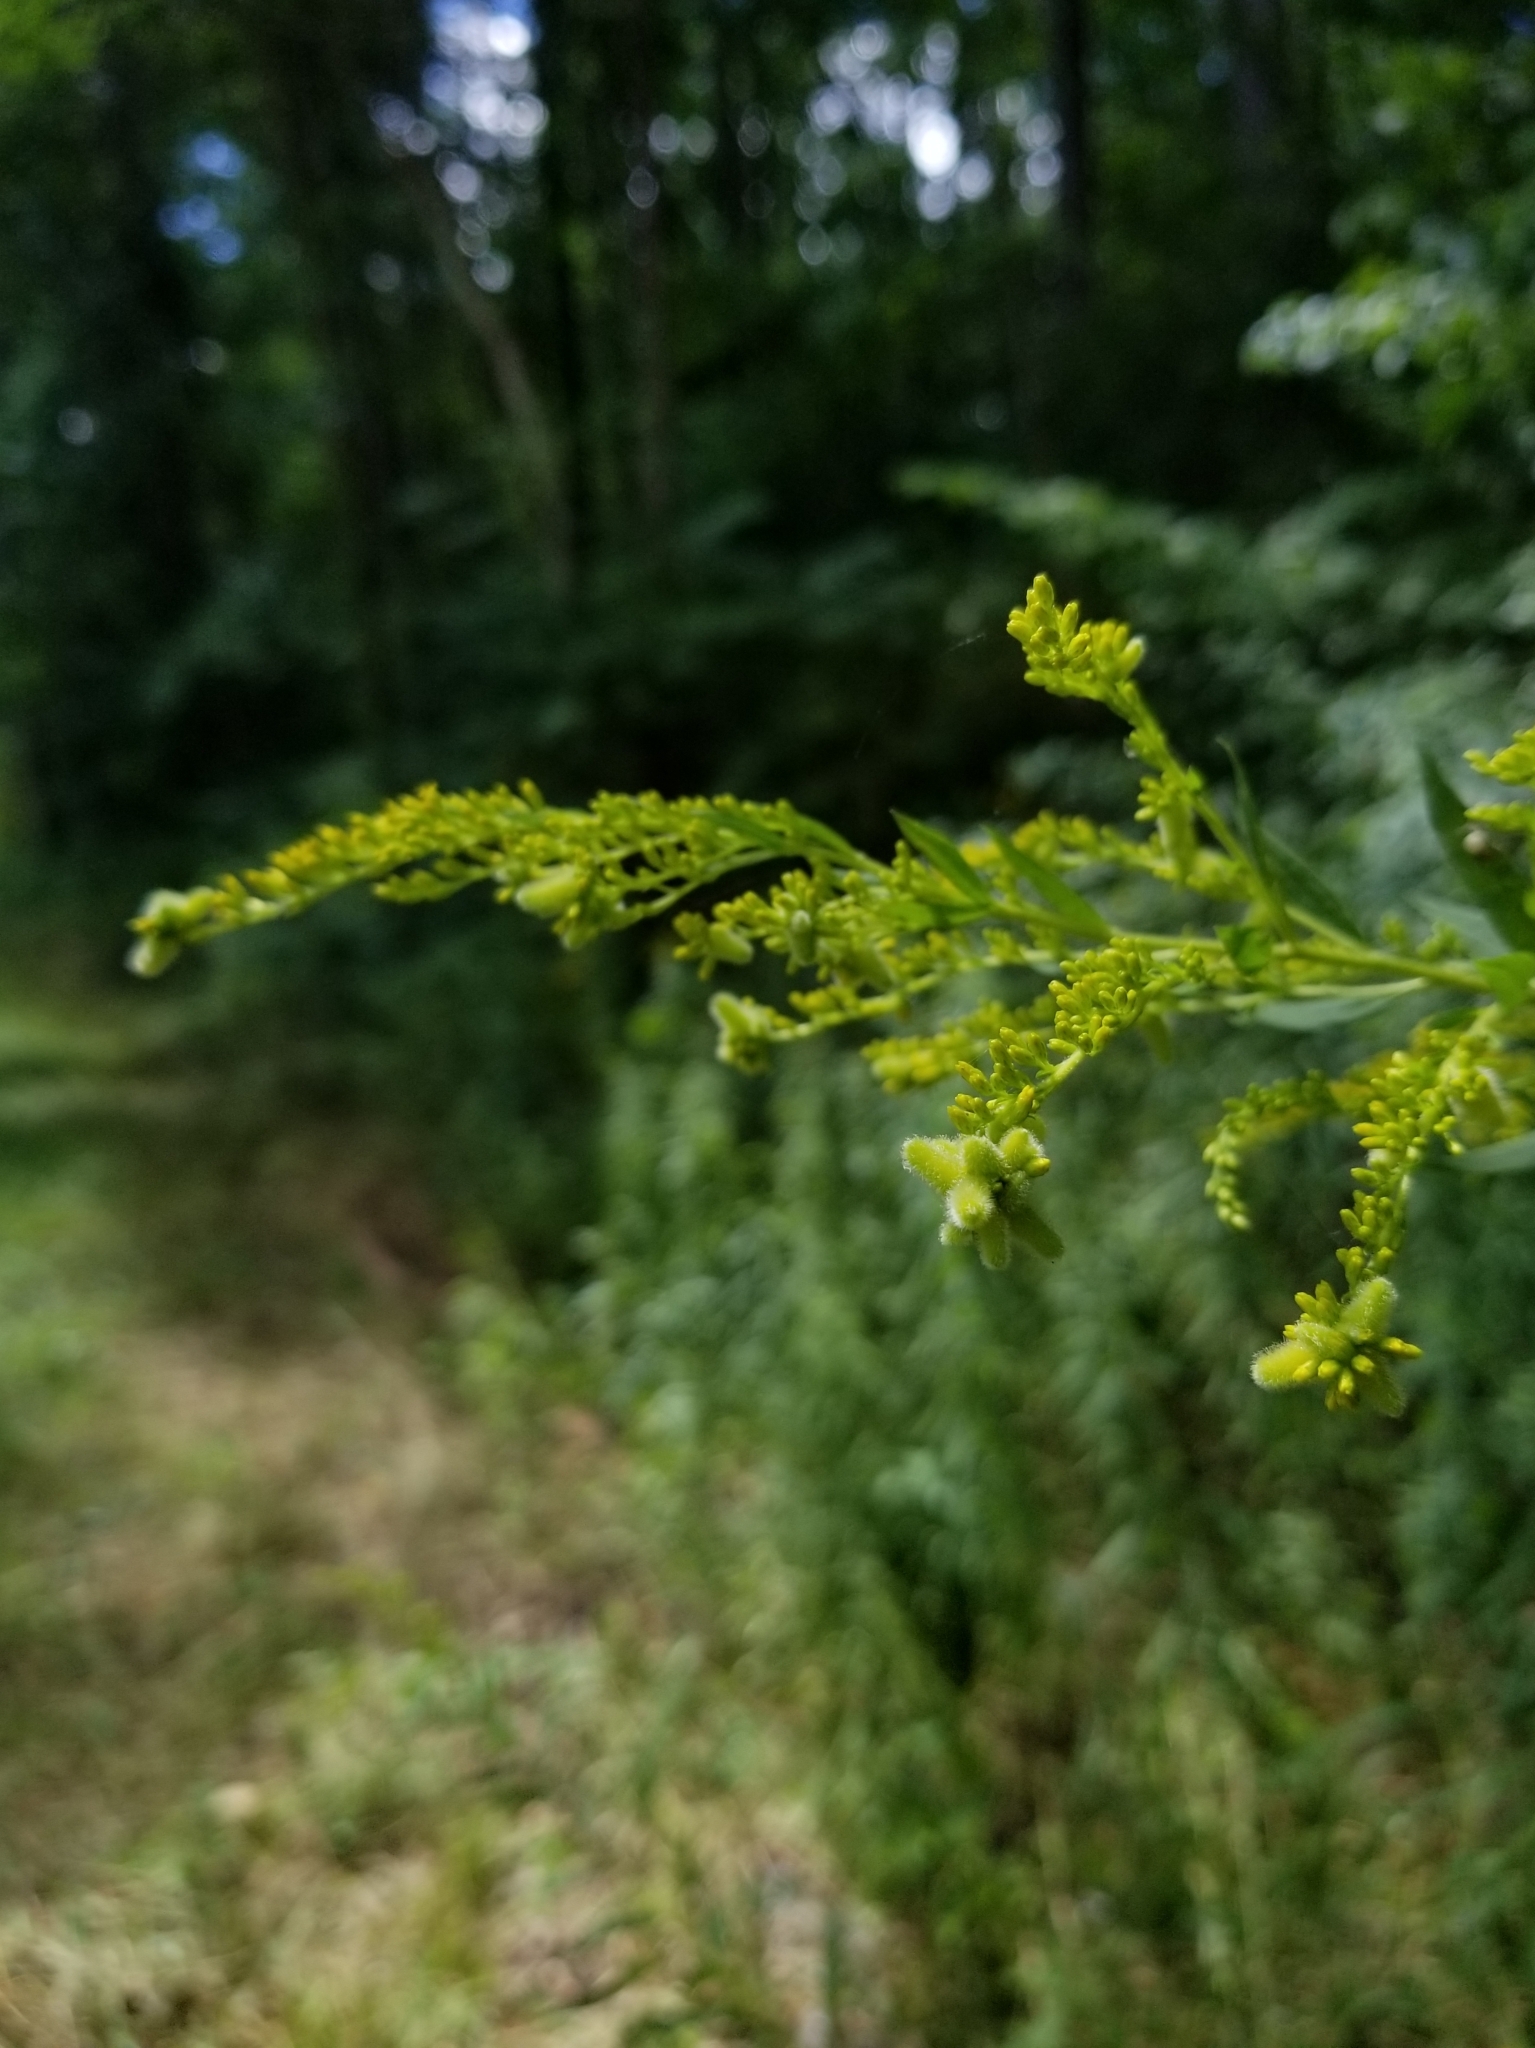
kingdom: Animalia
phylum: Arthropoda
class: Insecta
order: Diptera
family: Cecidomyiidae
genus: Rhopalomyia
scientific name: Rhopalomyia anthophila
